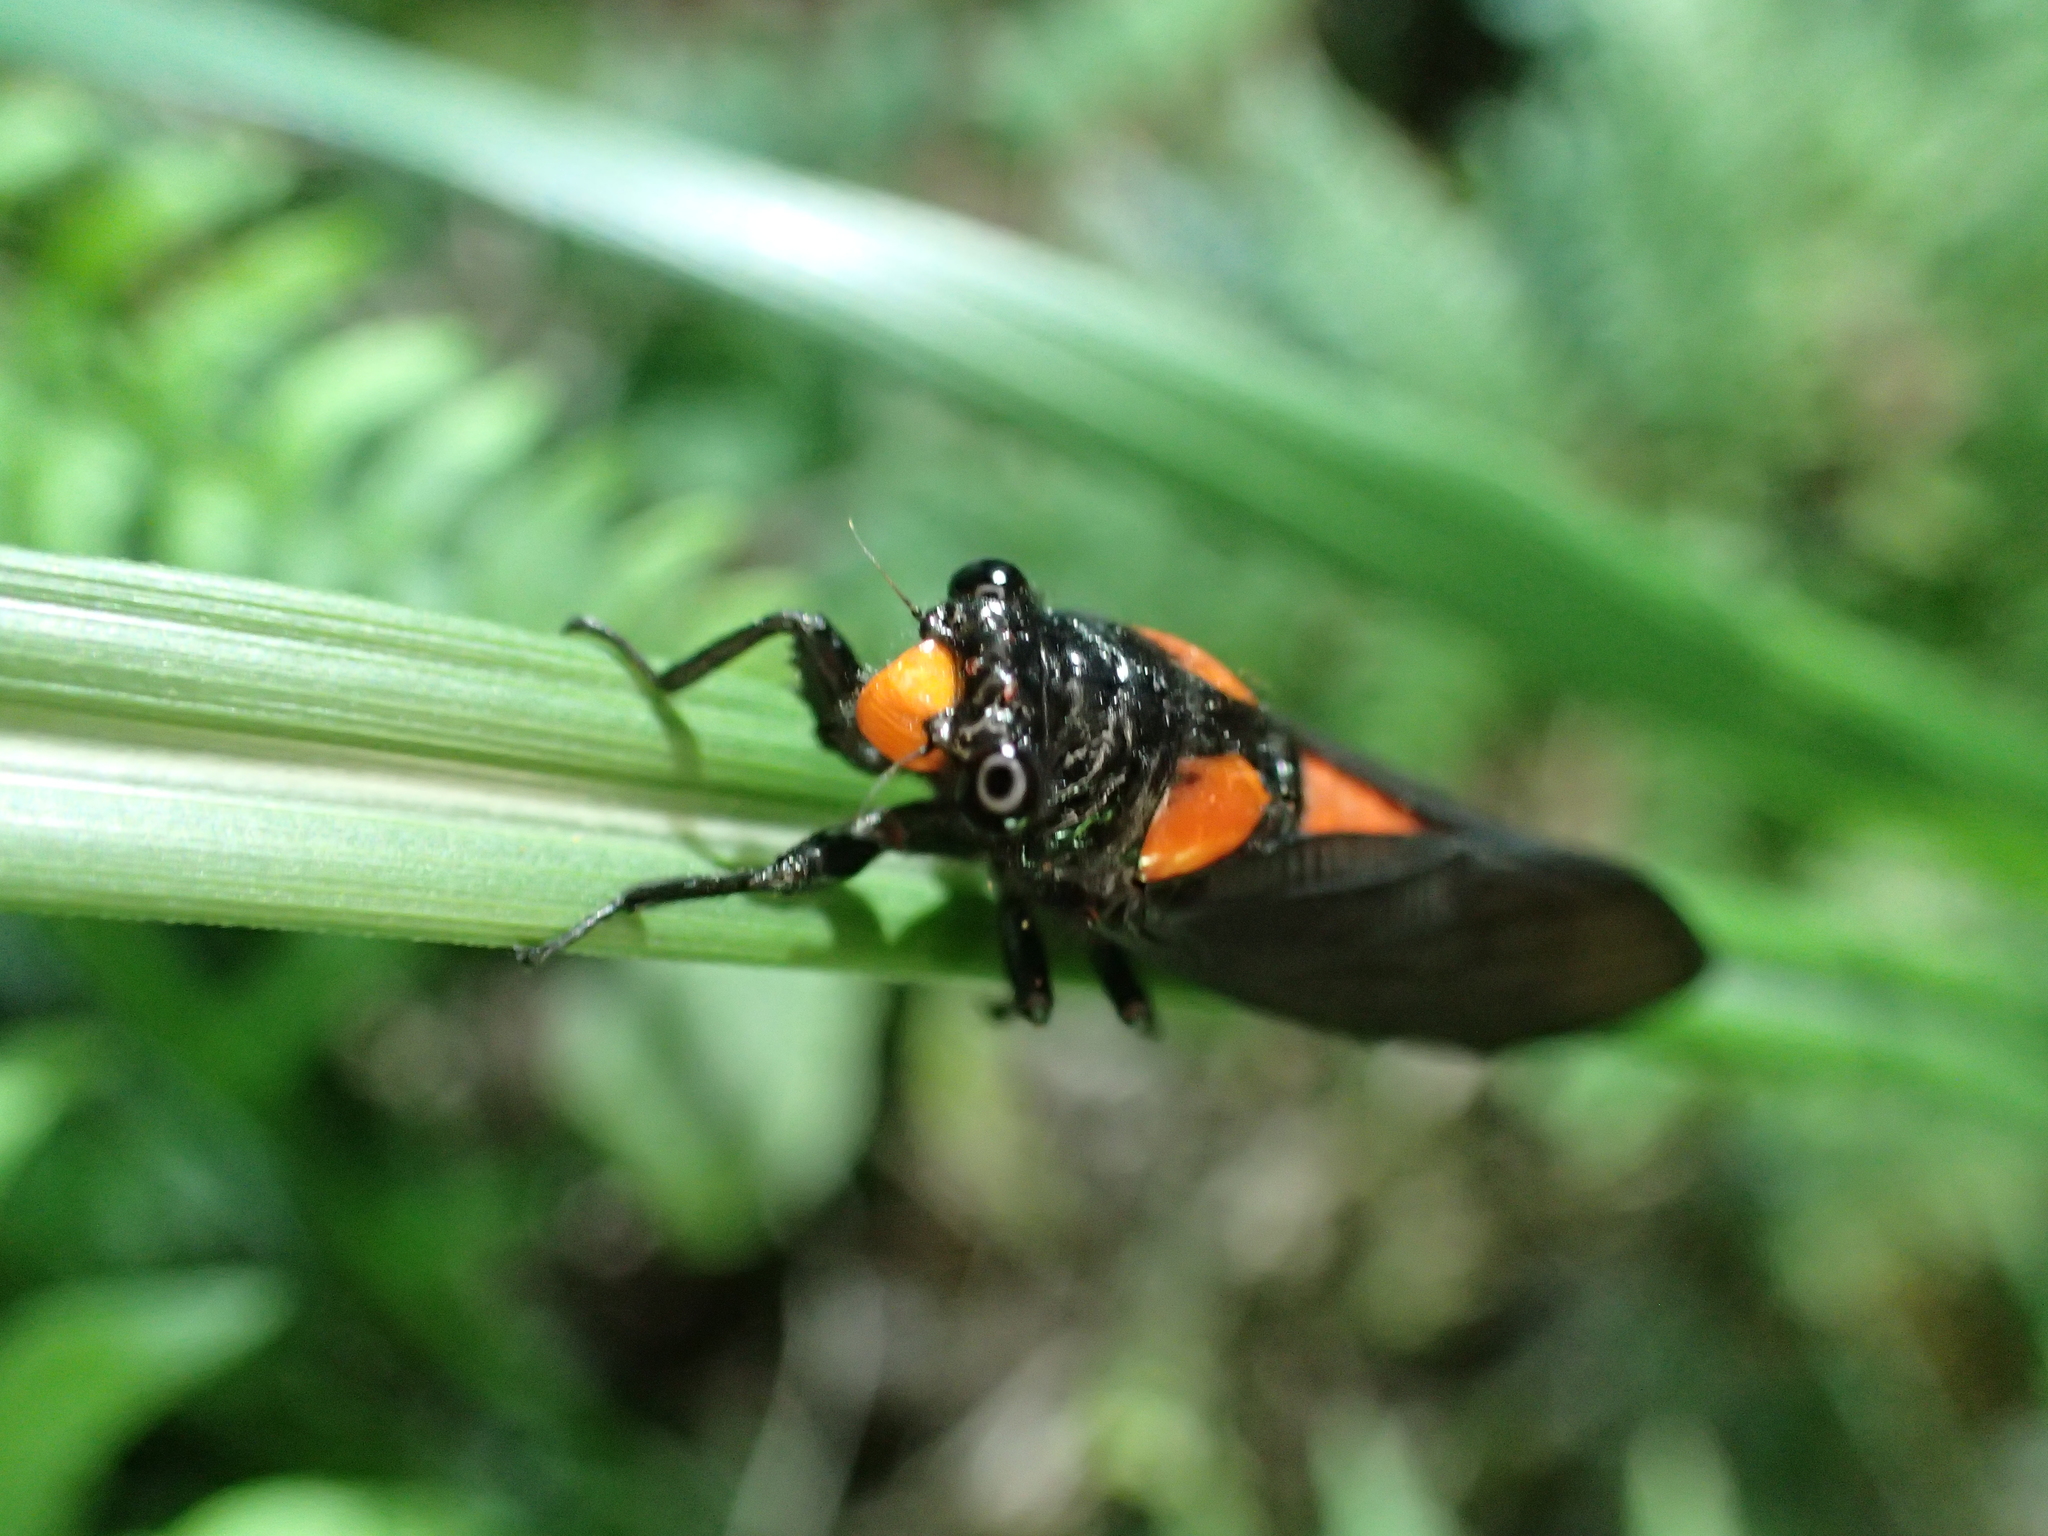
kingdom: Animalia
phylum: Arthropoda
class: Insecta
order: Hemiptera
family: Cicadidae
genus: Huechys
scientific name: Huechys sanguinea
